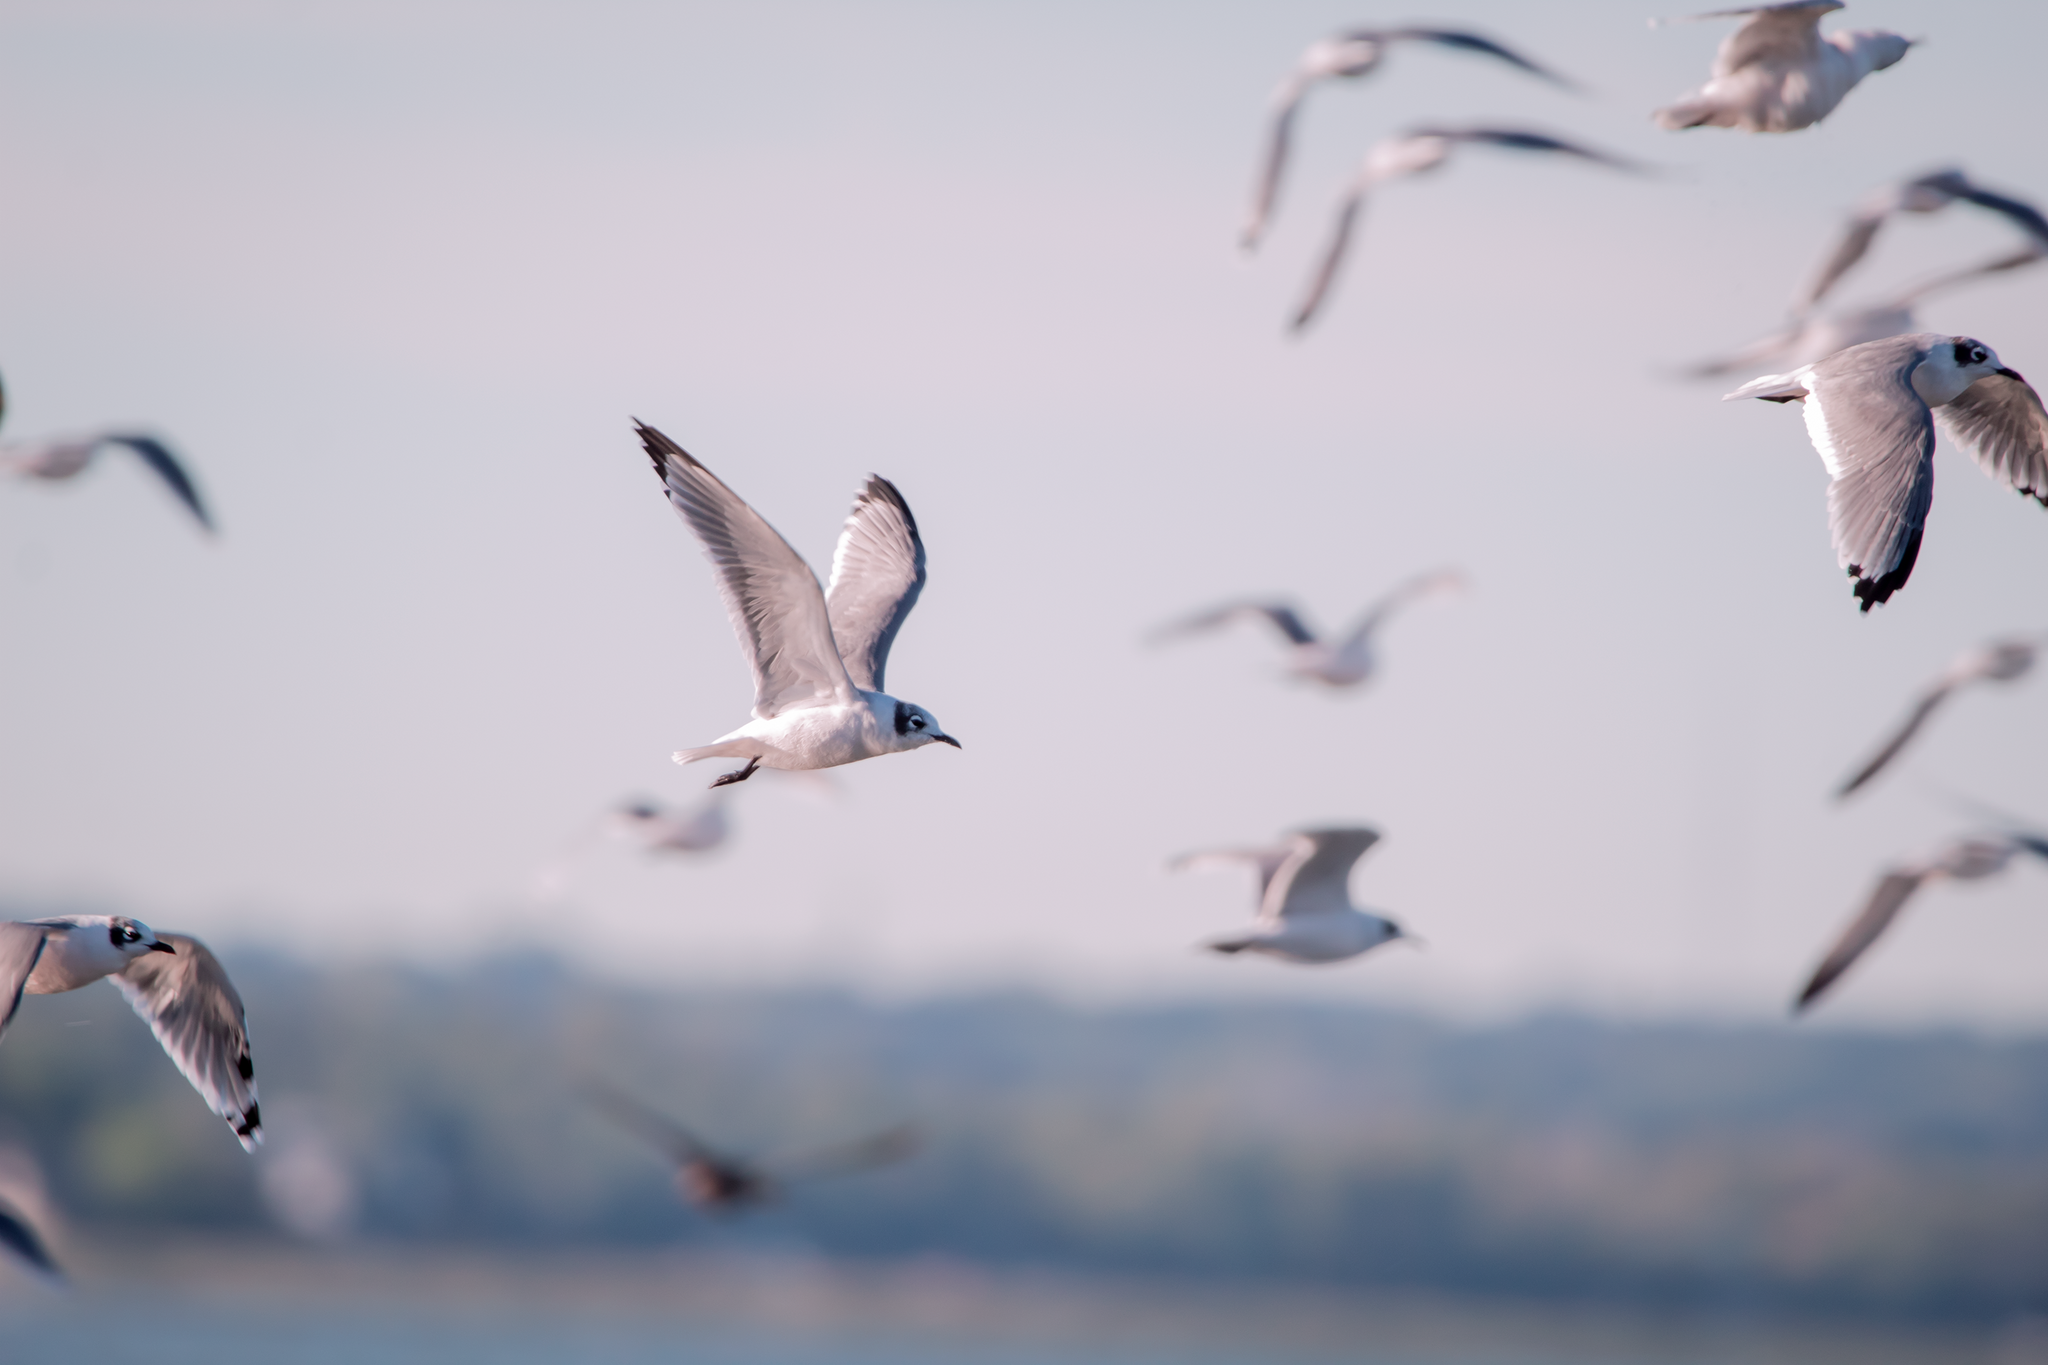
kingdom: Animalia
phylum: Chordata
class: Aves
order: Charadriiformes
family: Laridae
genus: Leucophaeus
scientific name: Leucophaeus pipixcan
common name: Franklin's gull
